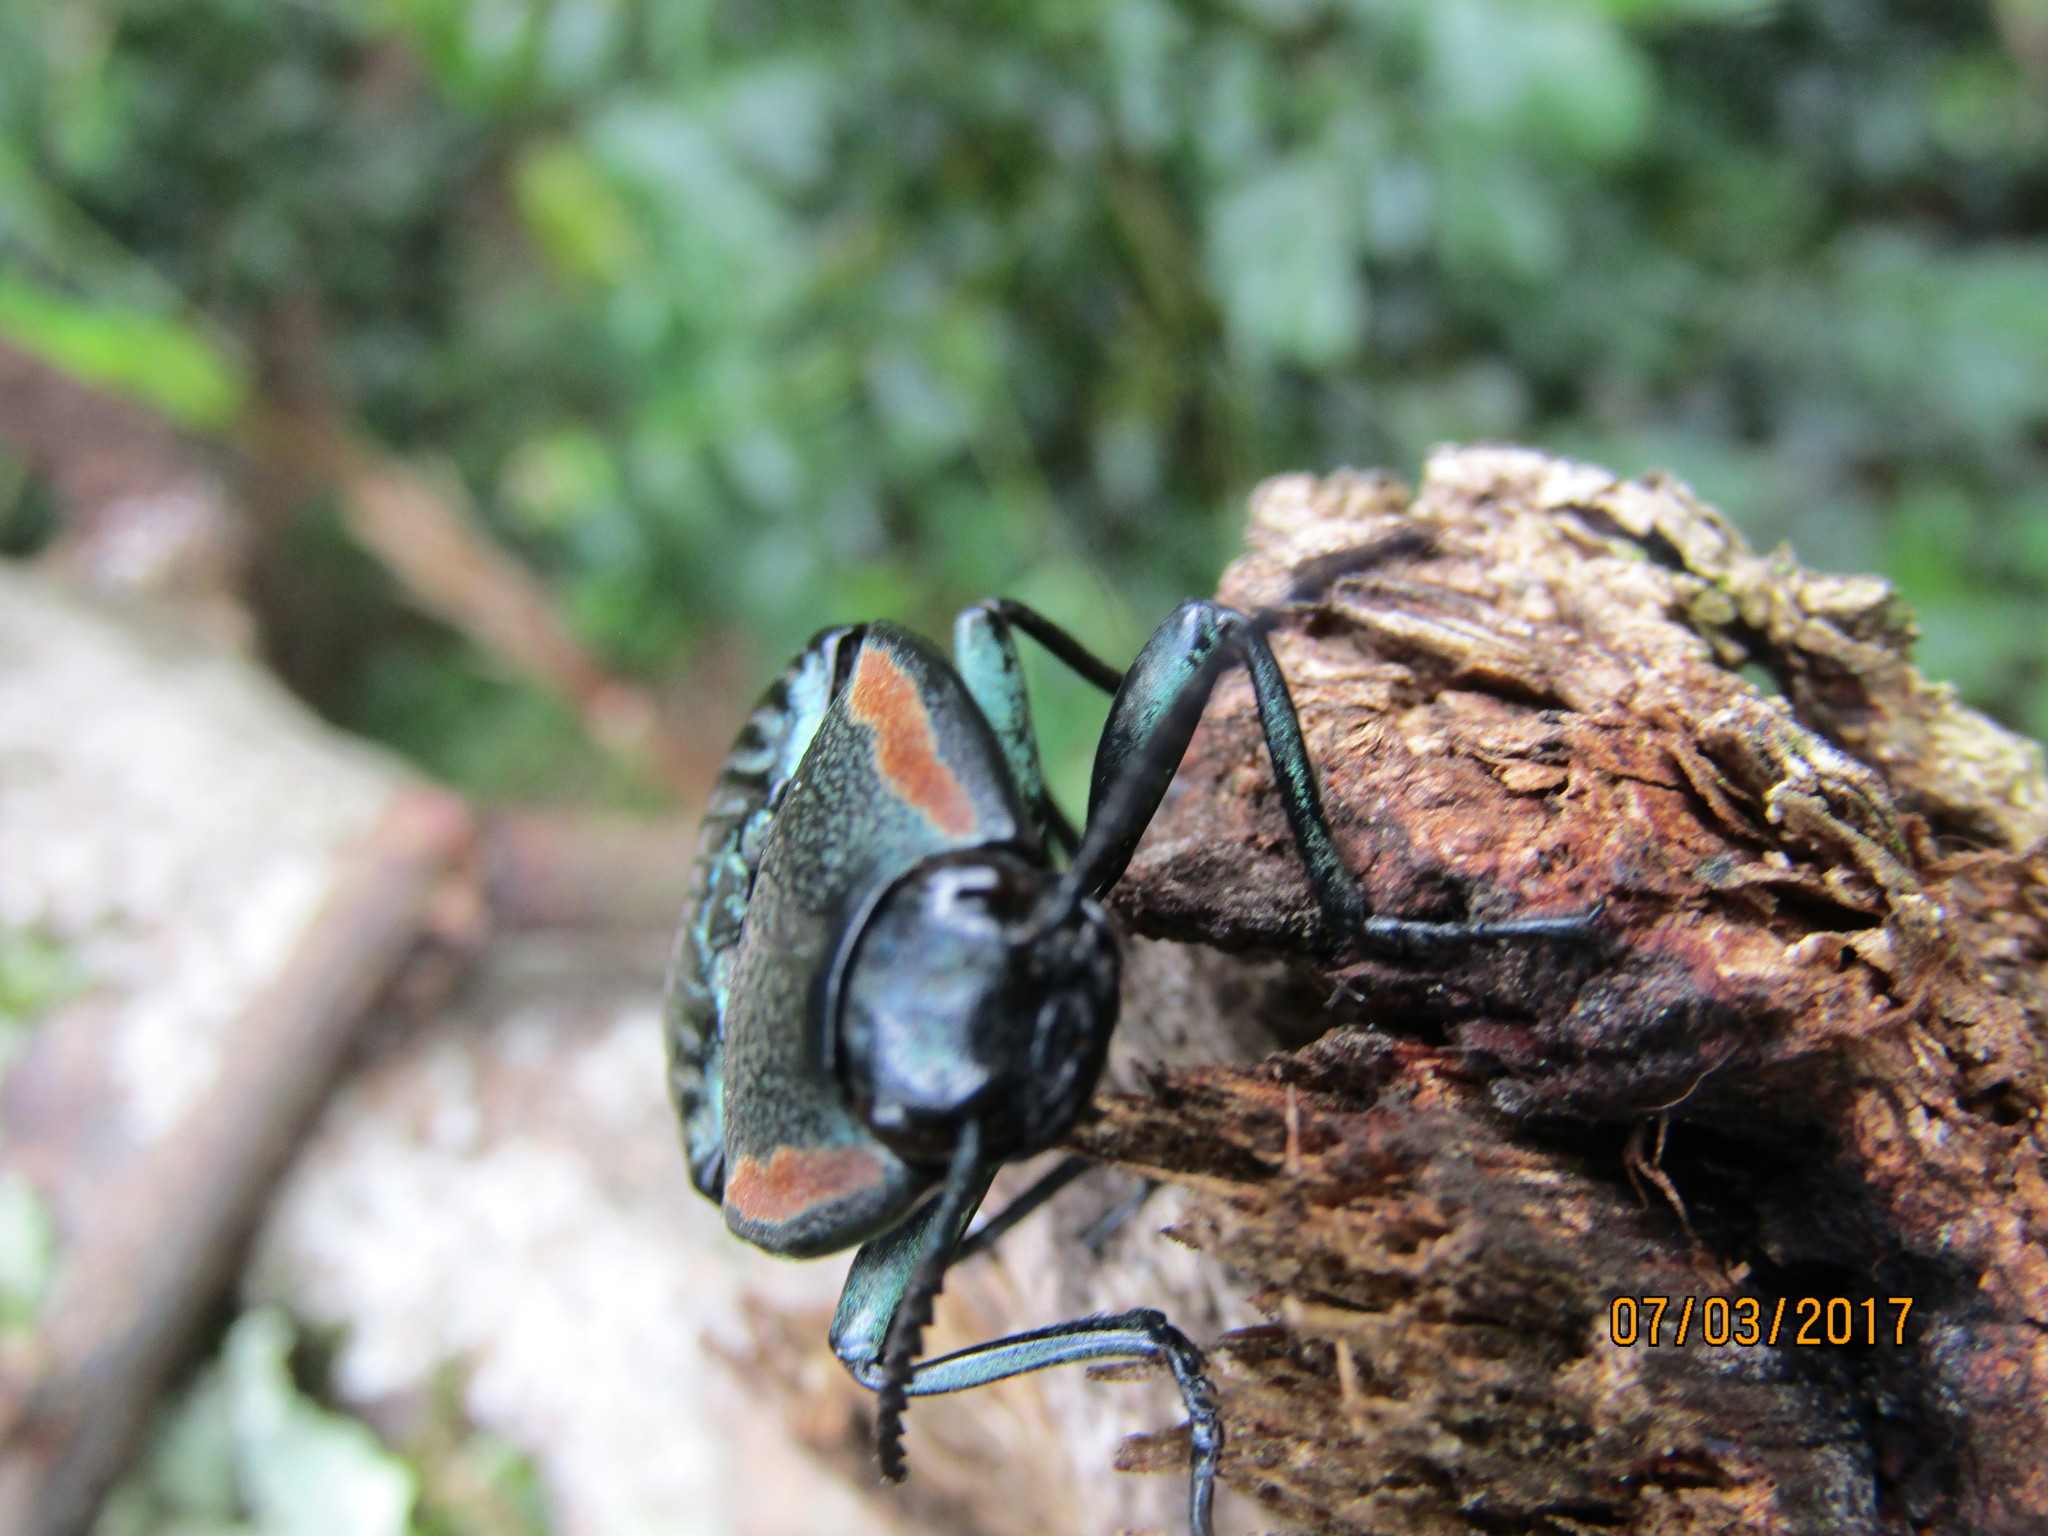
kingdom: Animalia
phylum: Arthropoda
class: Insecta
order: Coleoptera
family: Elateridae
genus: Chalcolepidius
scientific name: Chalcolepidius
